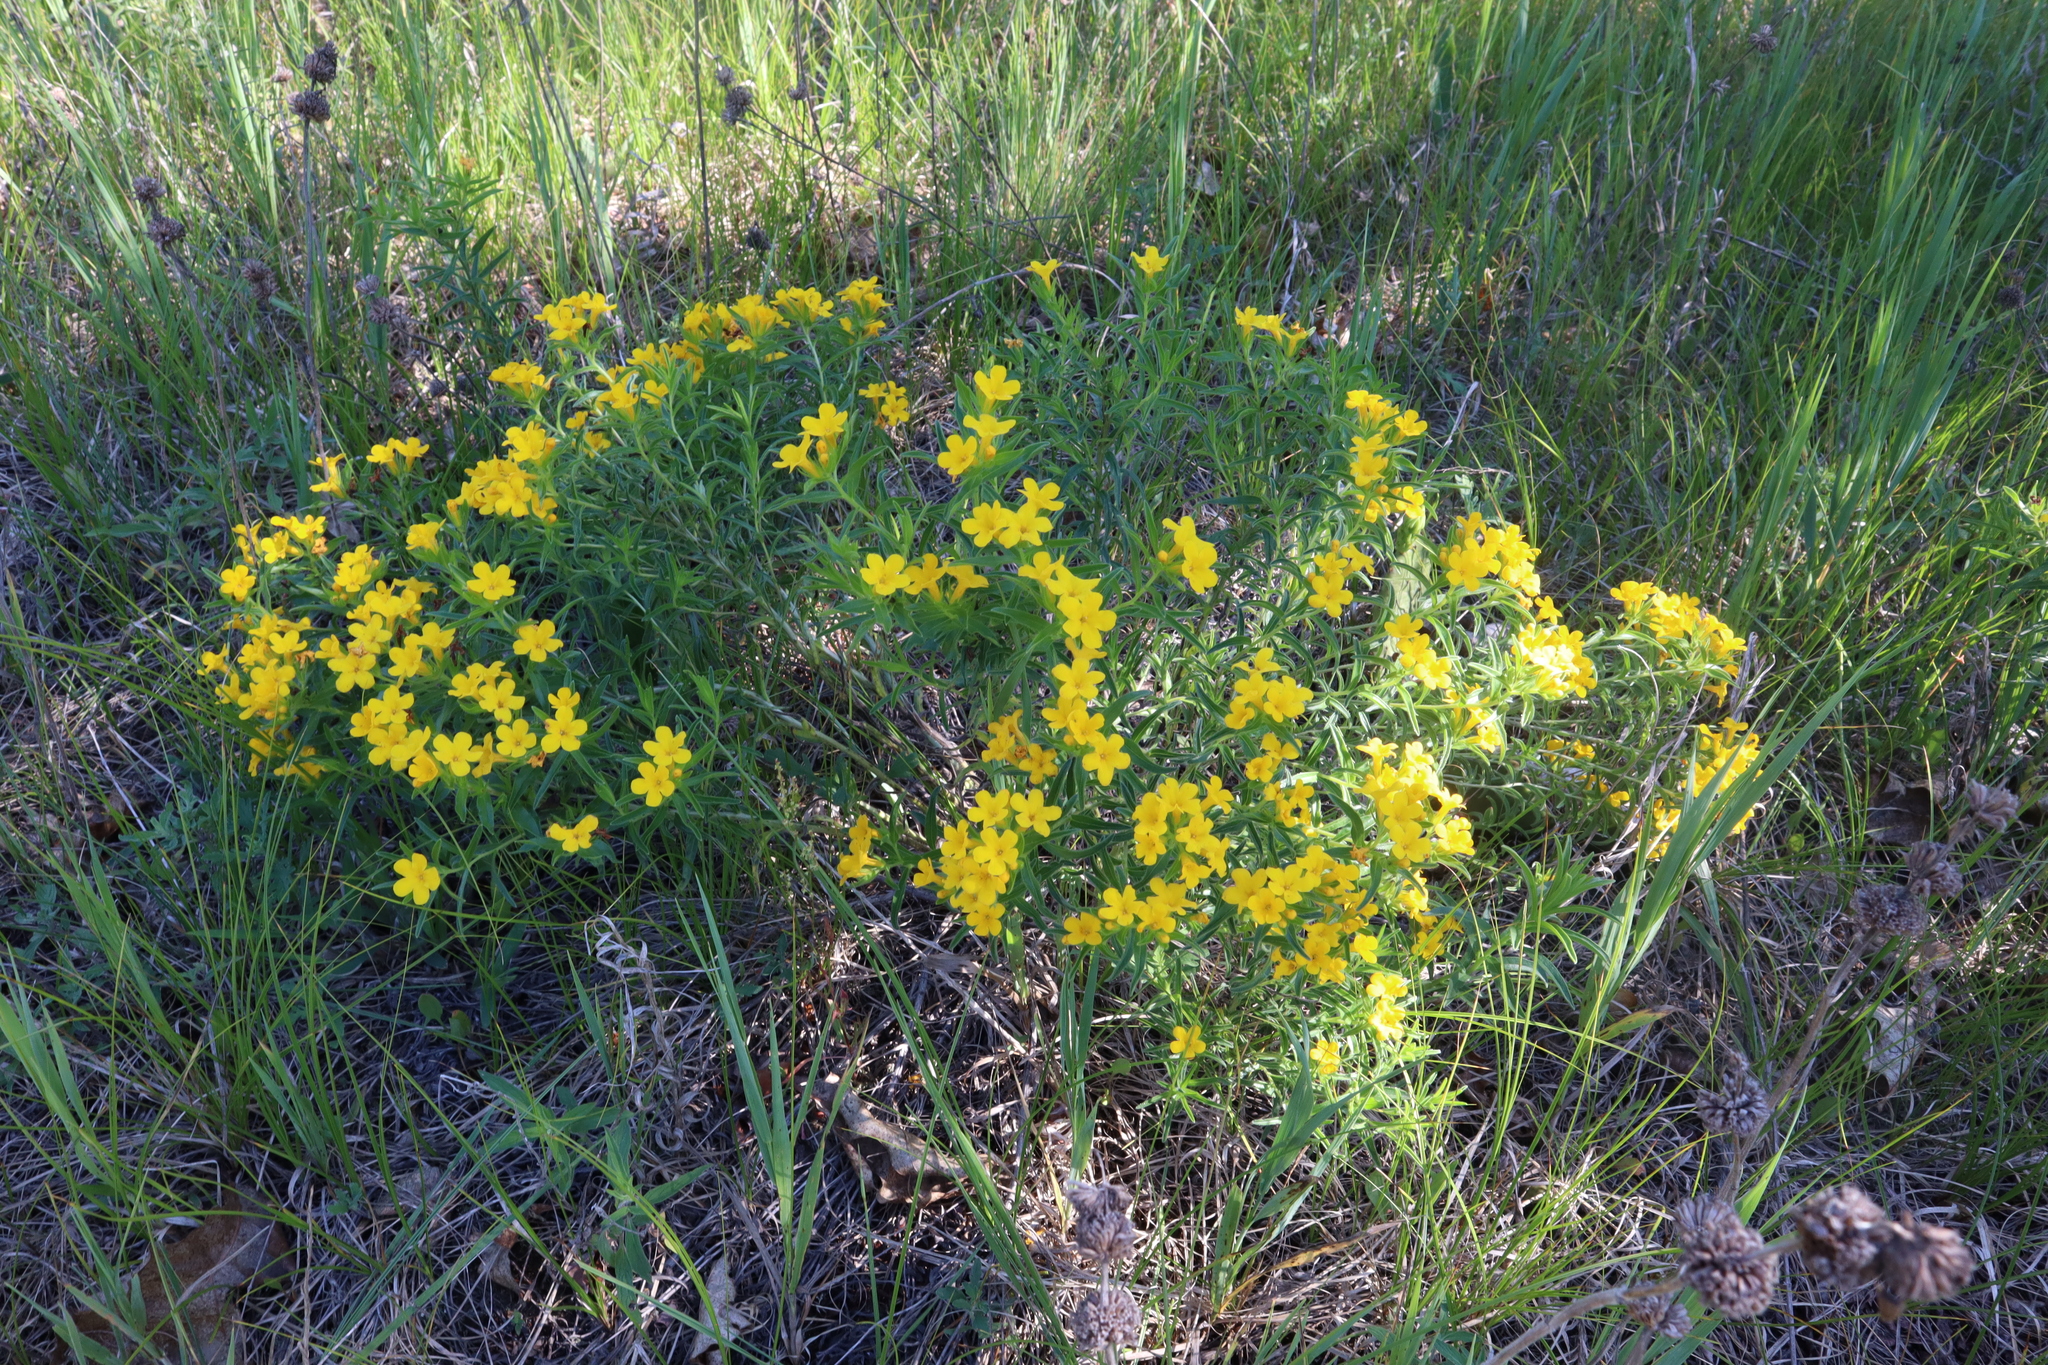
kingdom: Plantae
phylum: Tracheophyta
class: Magnoliopsida
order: Boraginales
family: Boraginaceae
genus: Lithospermum
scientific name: Lithospermum caroliniense
